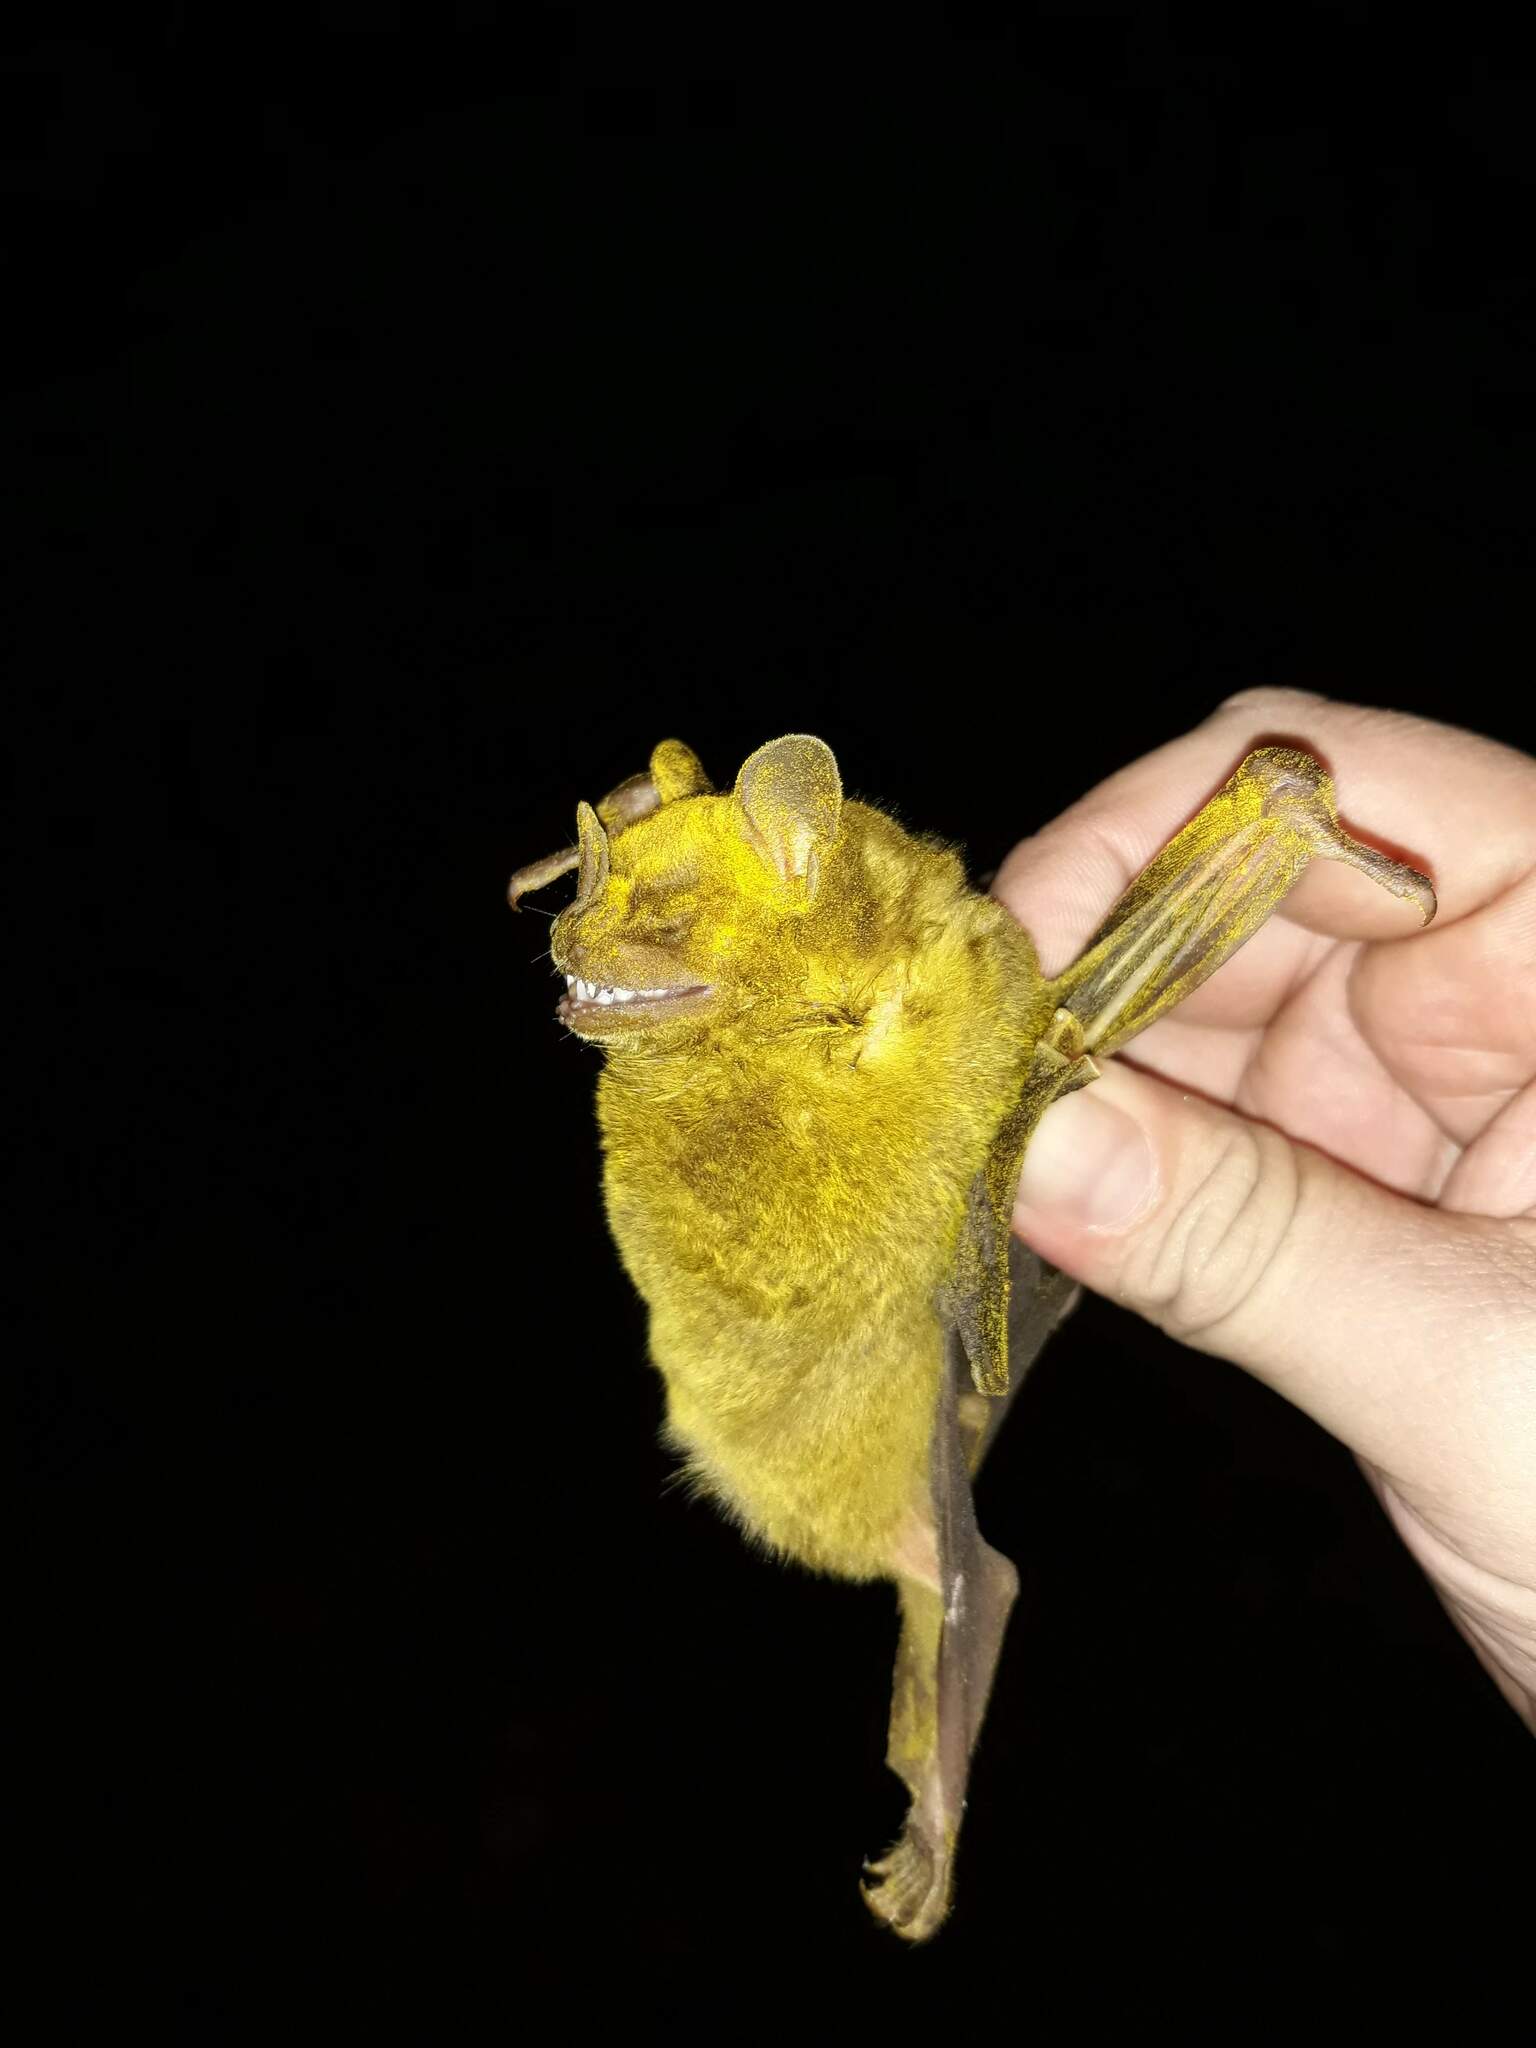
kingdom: Animalia
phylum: Chordata
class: Mammalia
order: Chiroptera
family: Phyllostomidae
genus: Artibeus
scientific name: Artibeus jamaicensis
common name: Jamaican fruit-eating bat
